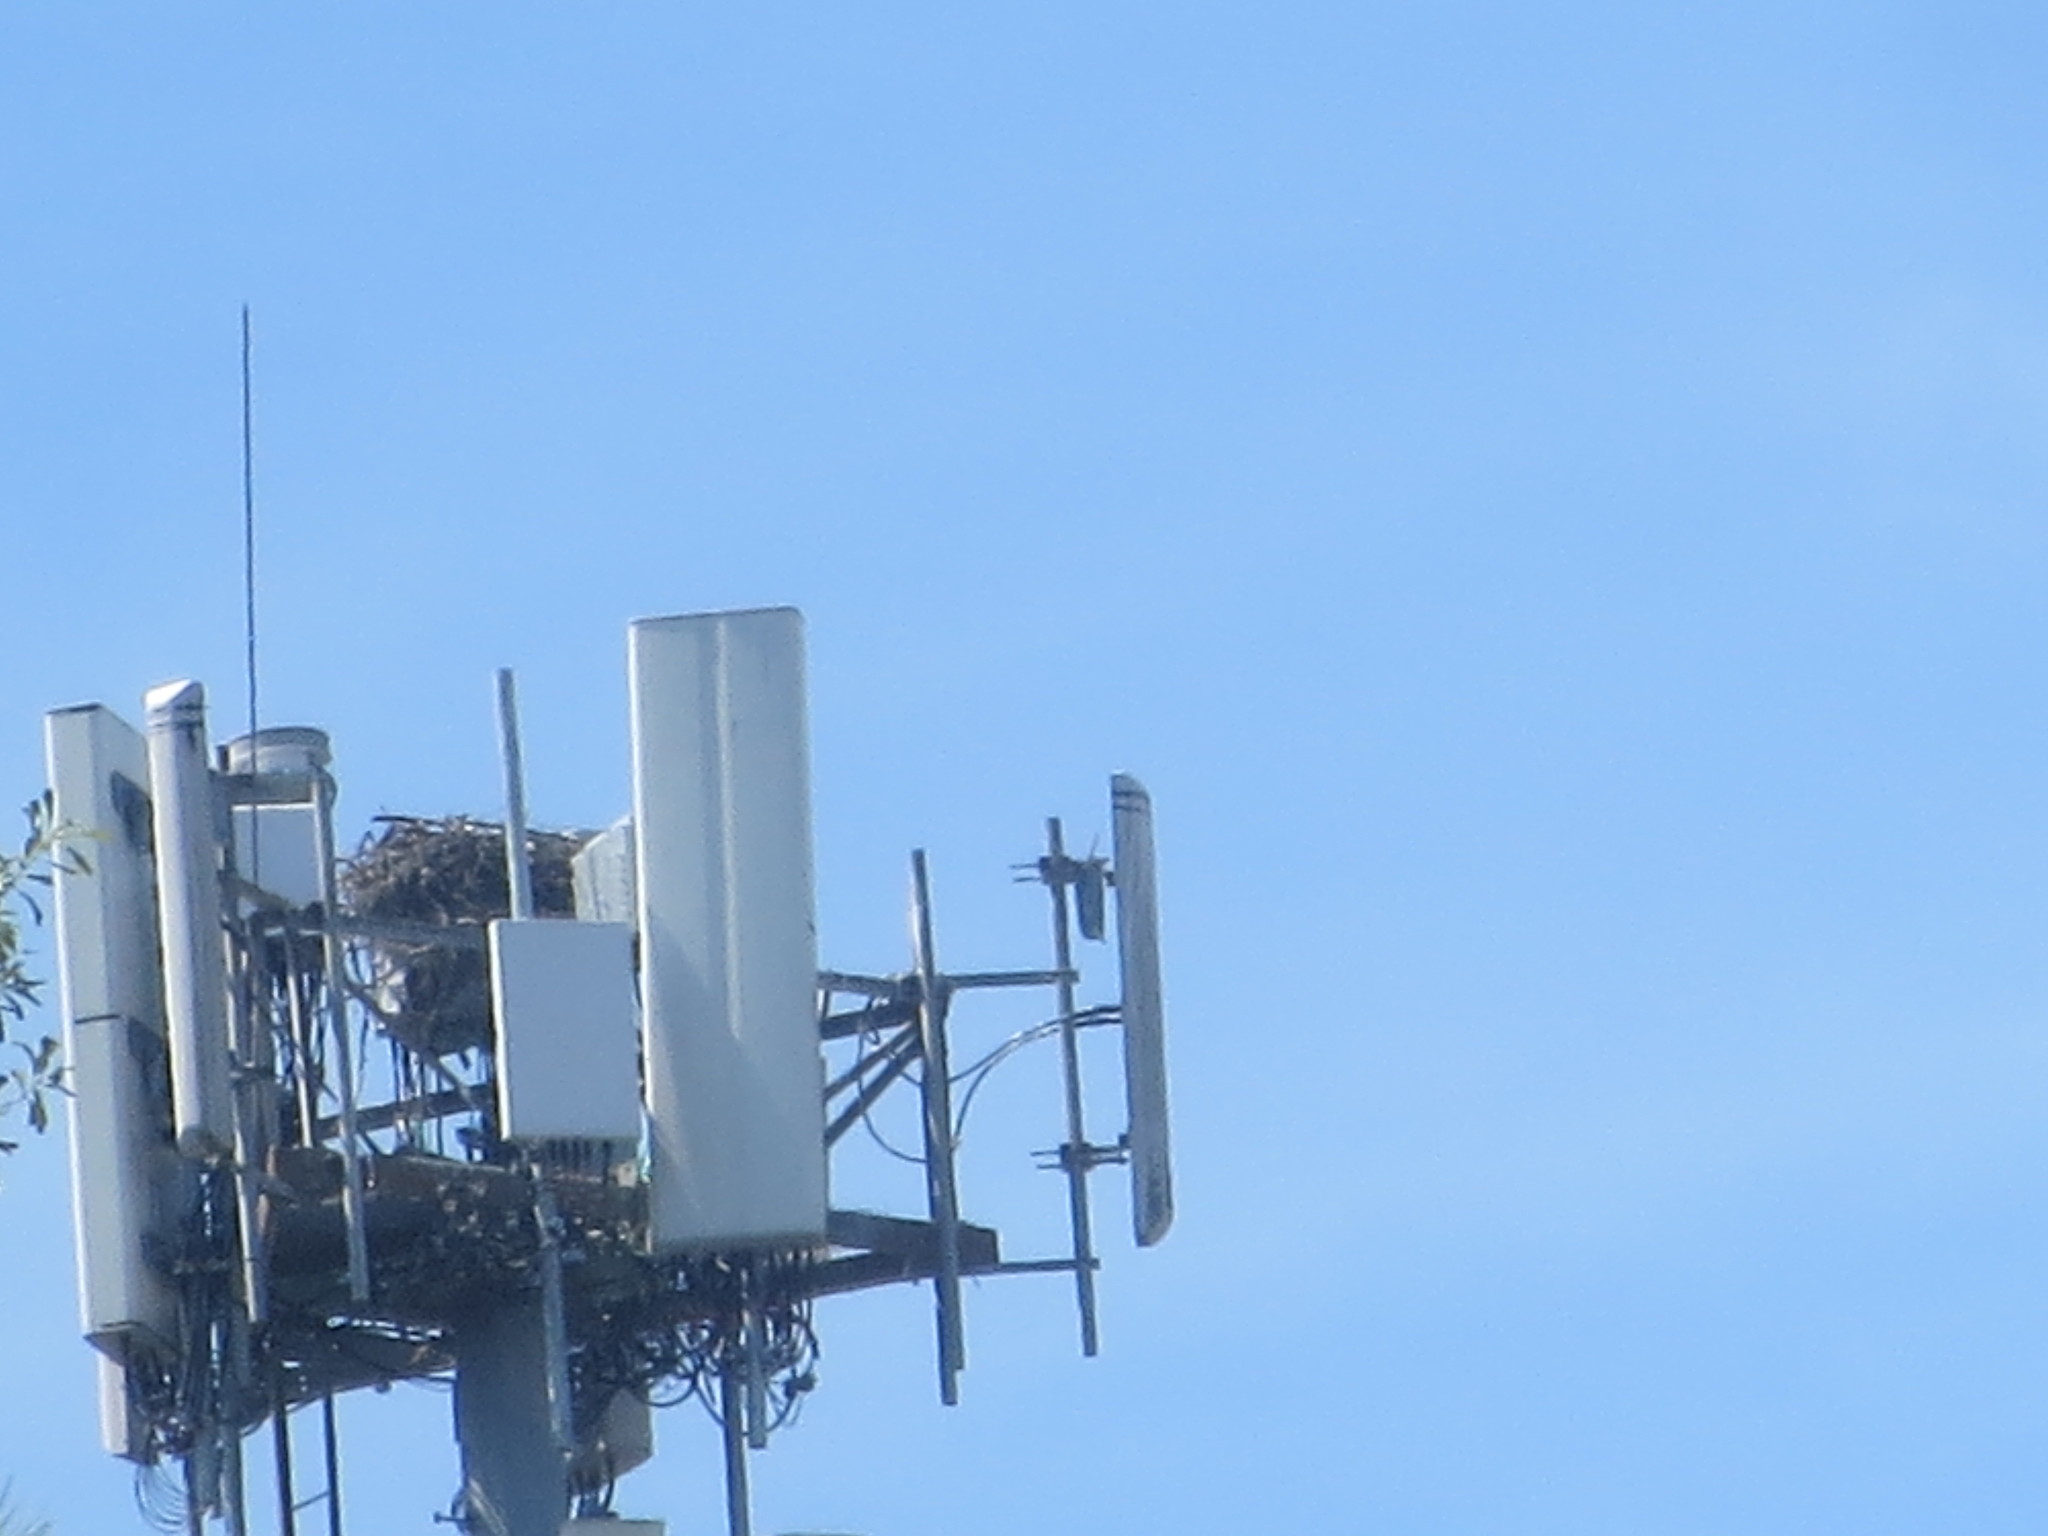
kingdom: Animalia
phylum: Chordata
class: Aves
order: Accipitriformes
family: Pandionidae
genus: Pandion
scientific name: Pandion haliaetus
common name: Osprey
